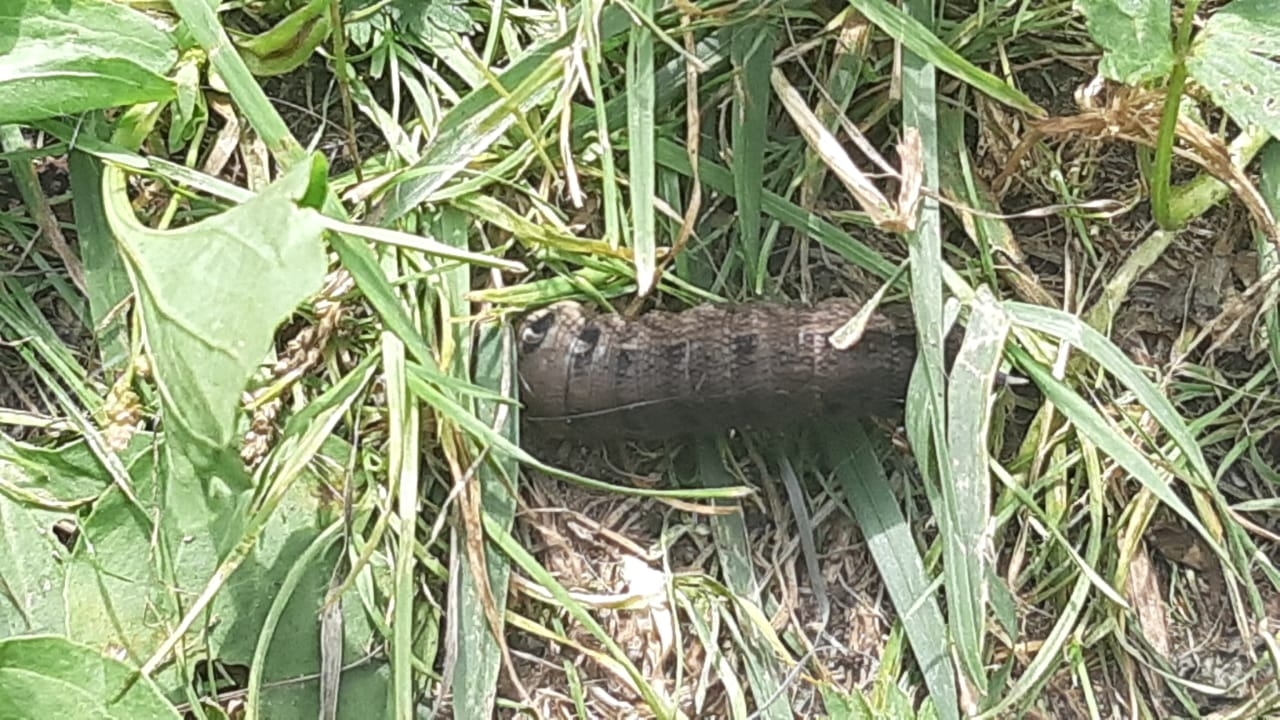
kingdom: Animalia
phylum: Arthropoda
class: Insecta
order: Lepidoptera
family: Sphingidae
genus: Deilephila
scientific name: Deilephila elpenor
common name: Elephant hawk-moth
